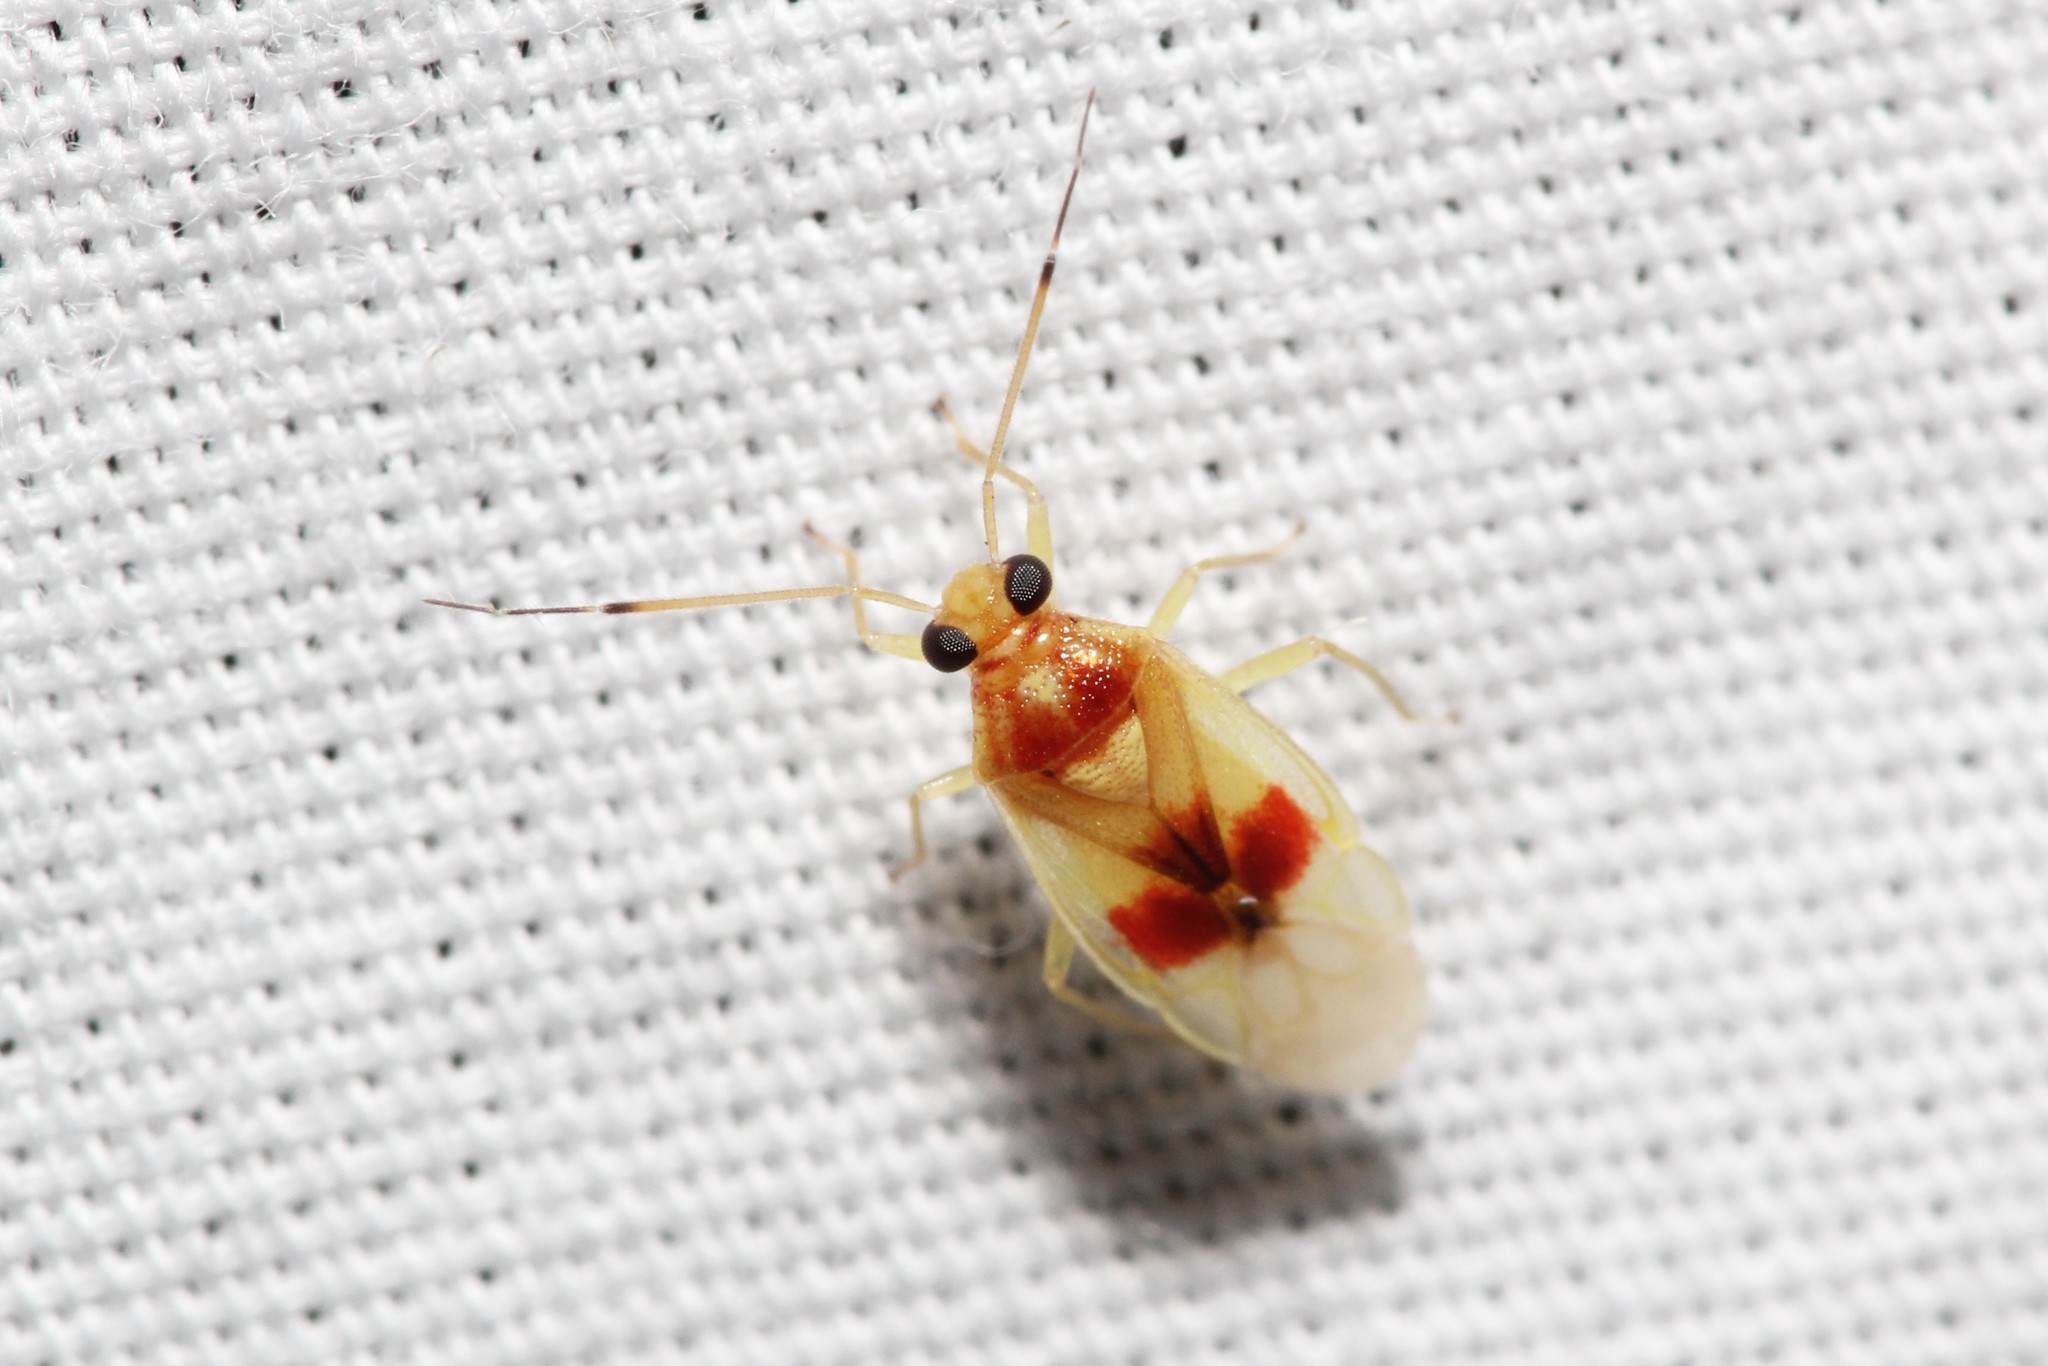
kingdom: Animalia
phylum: Arthropoda
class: Insecta
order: Hemiptera
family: Miridae
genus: Tropidosteptes
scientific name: Tropidosteptes brooksi
